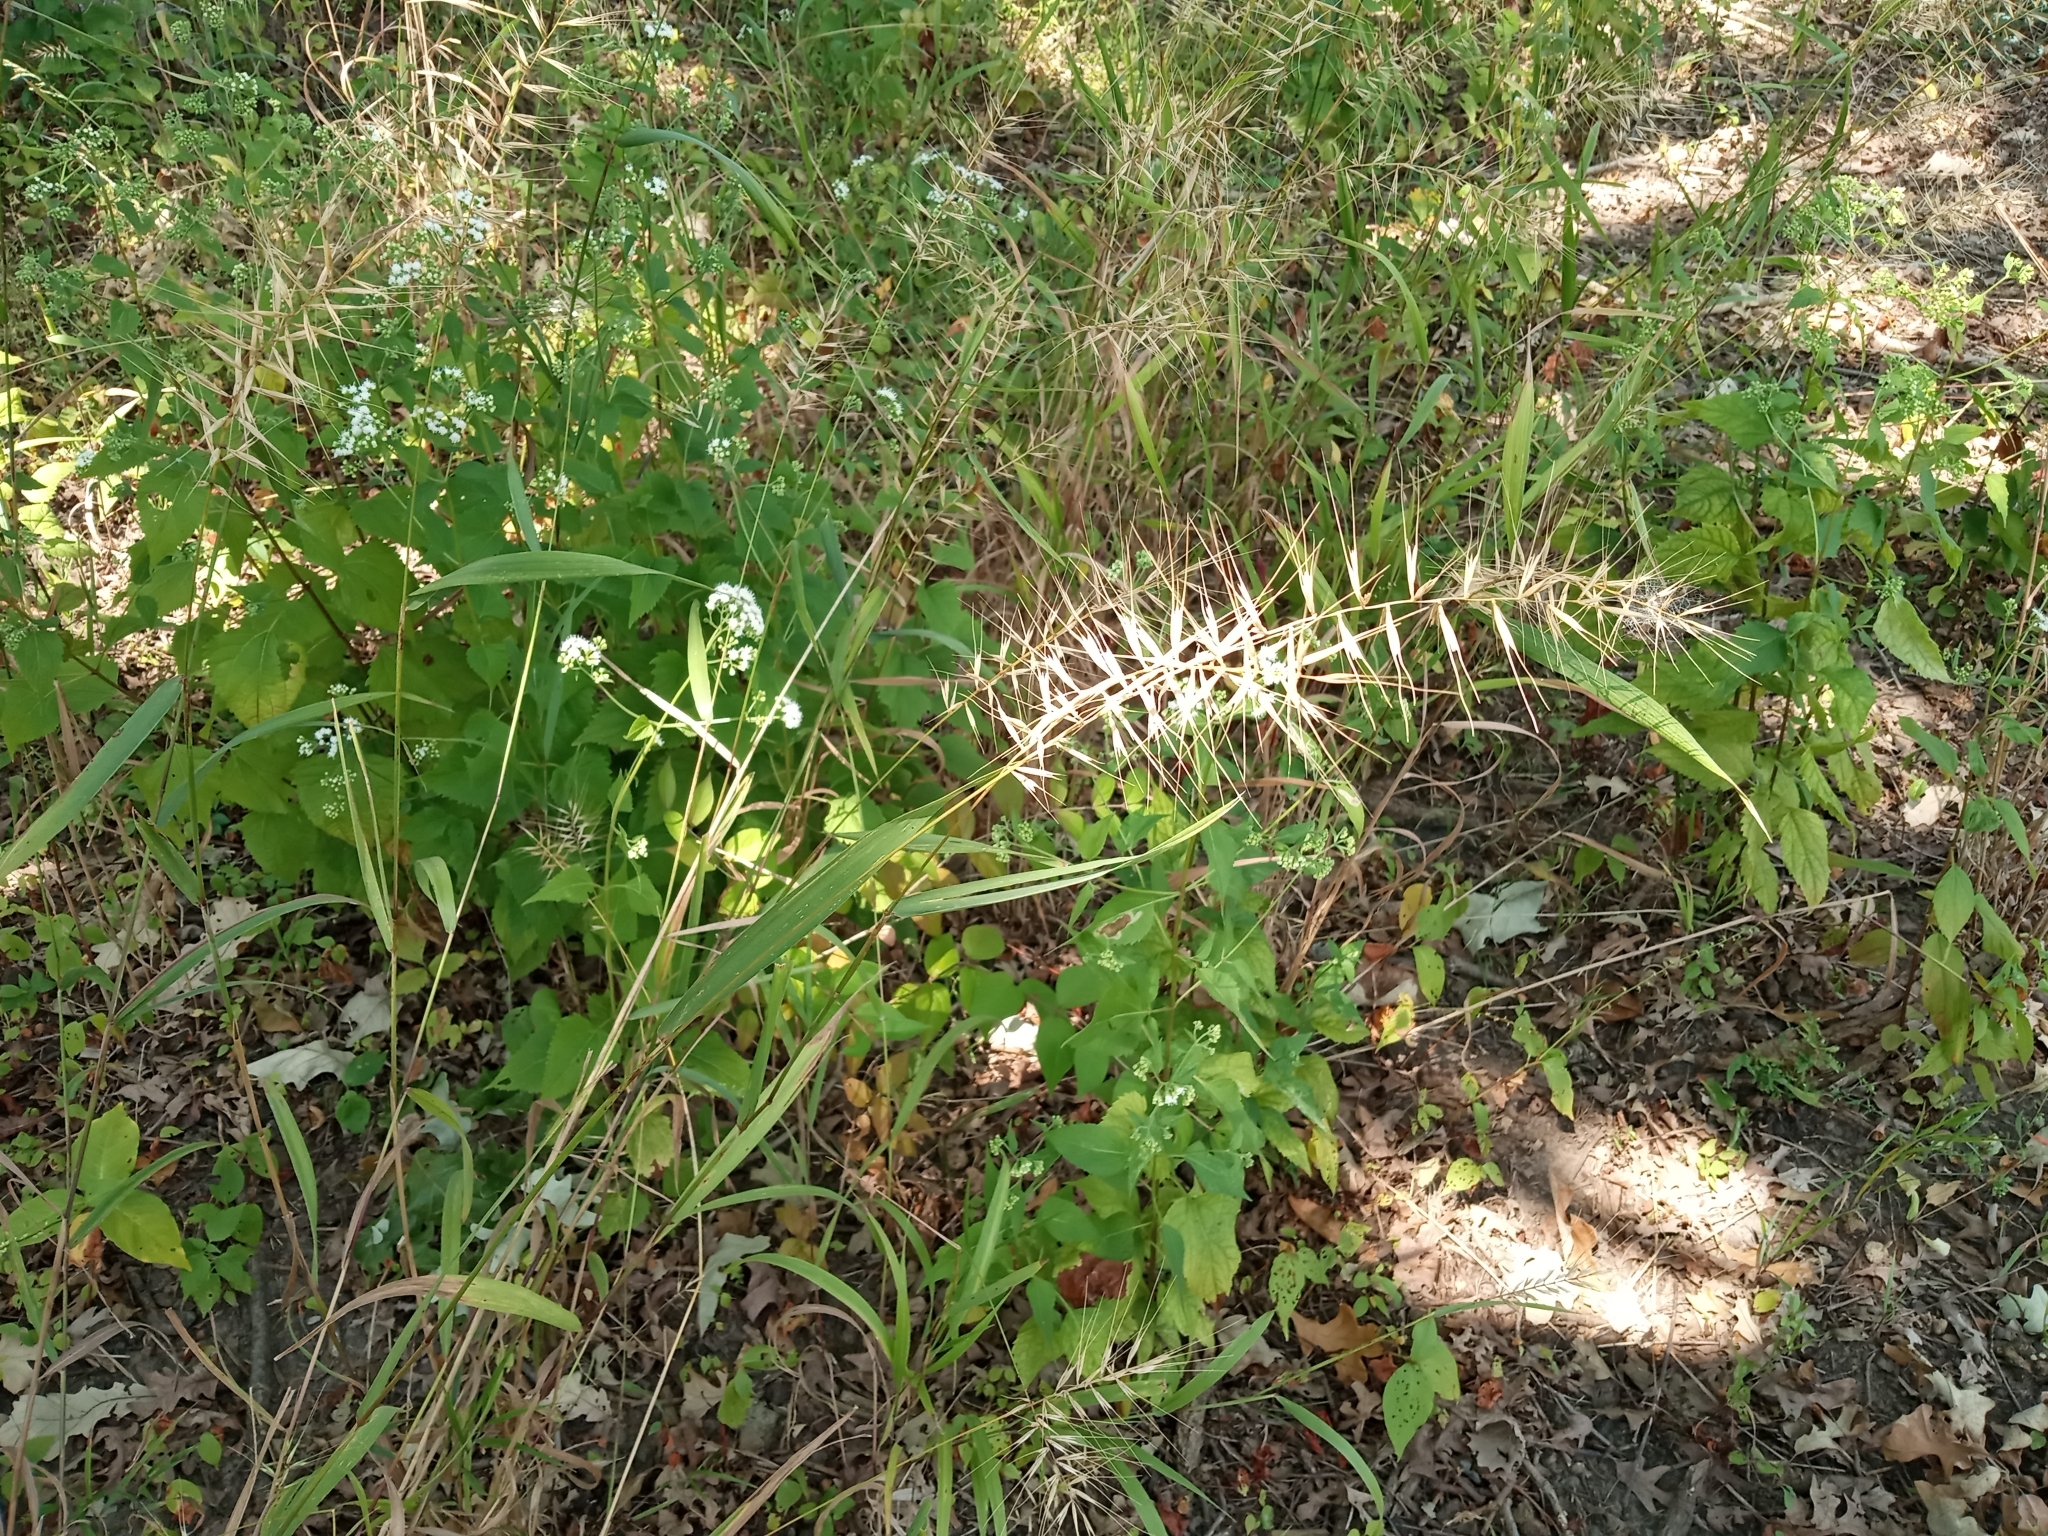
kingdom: Plantae
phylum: Tracheophyta
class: Liliopsida
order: Poales
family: Poaceae
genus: Elymus
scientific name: Elymus hystrix
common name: Bottlebrush grass
